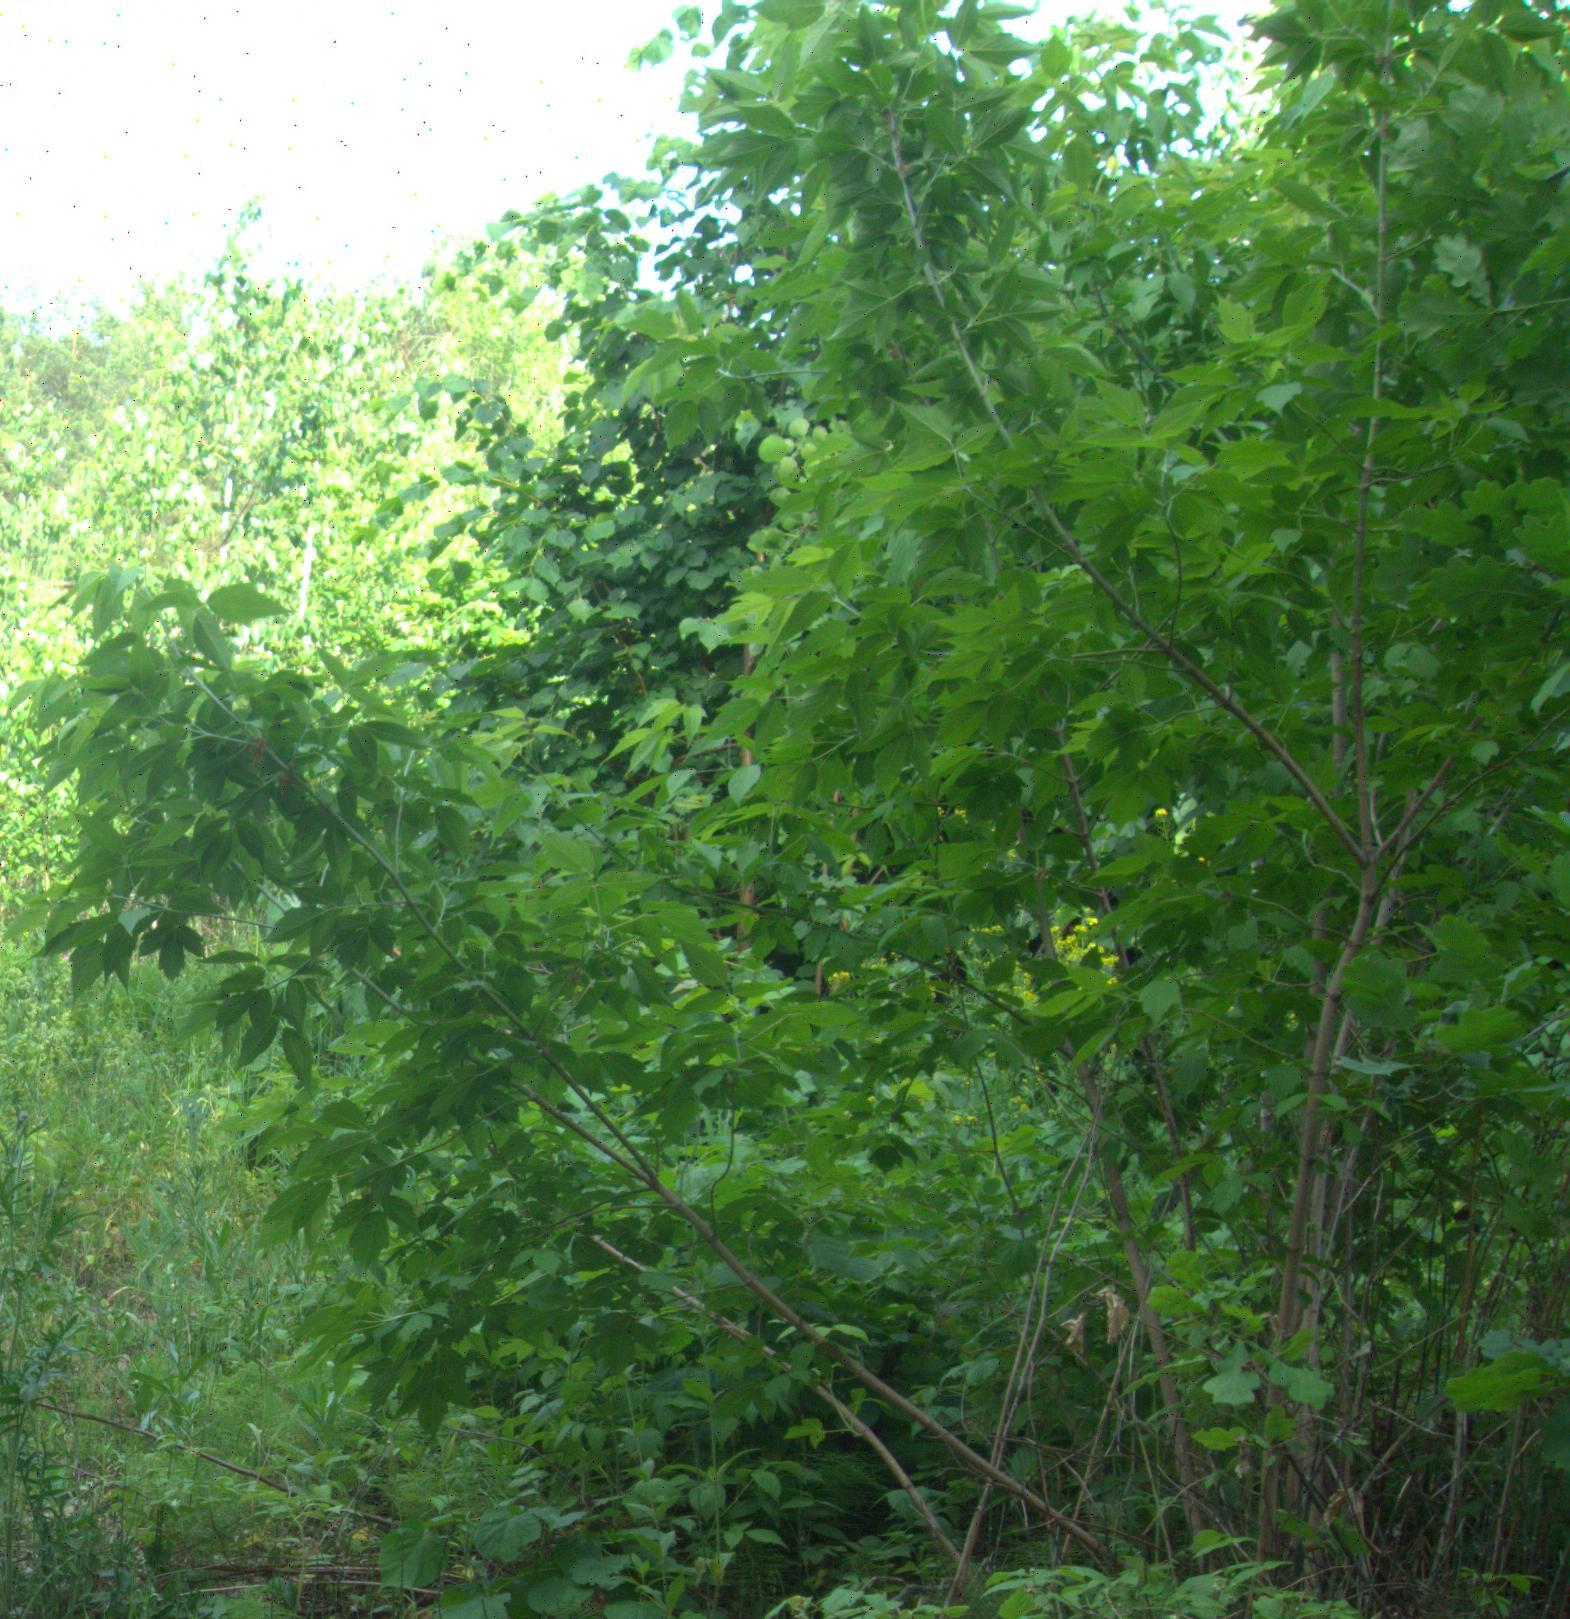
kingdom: Plantae
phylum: Tracheophyta
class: Magnoliopsida
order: Sapindales
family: Sapindaceae
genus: Acer
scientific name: Acer negundo
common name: Ashleaf maple
